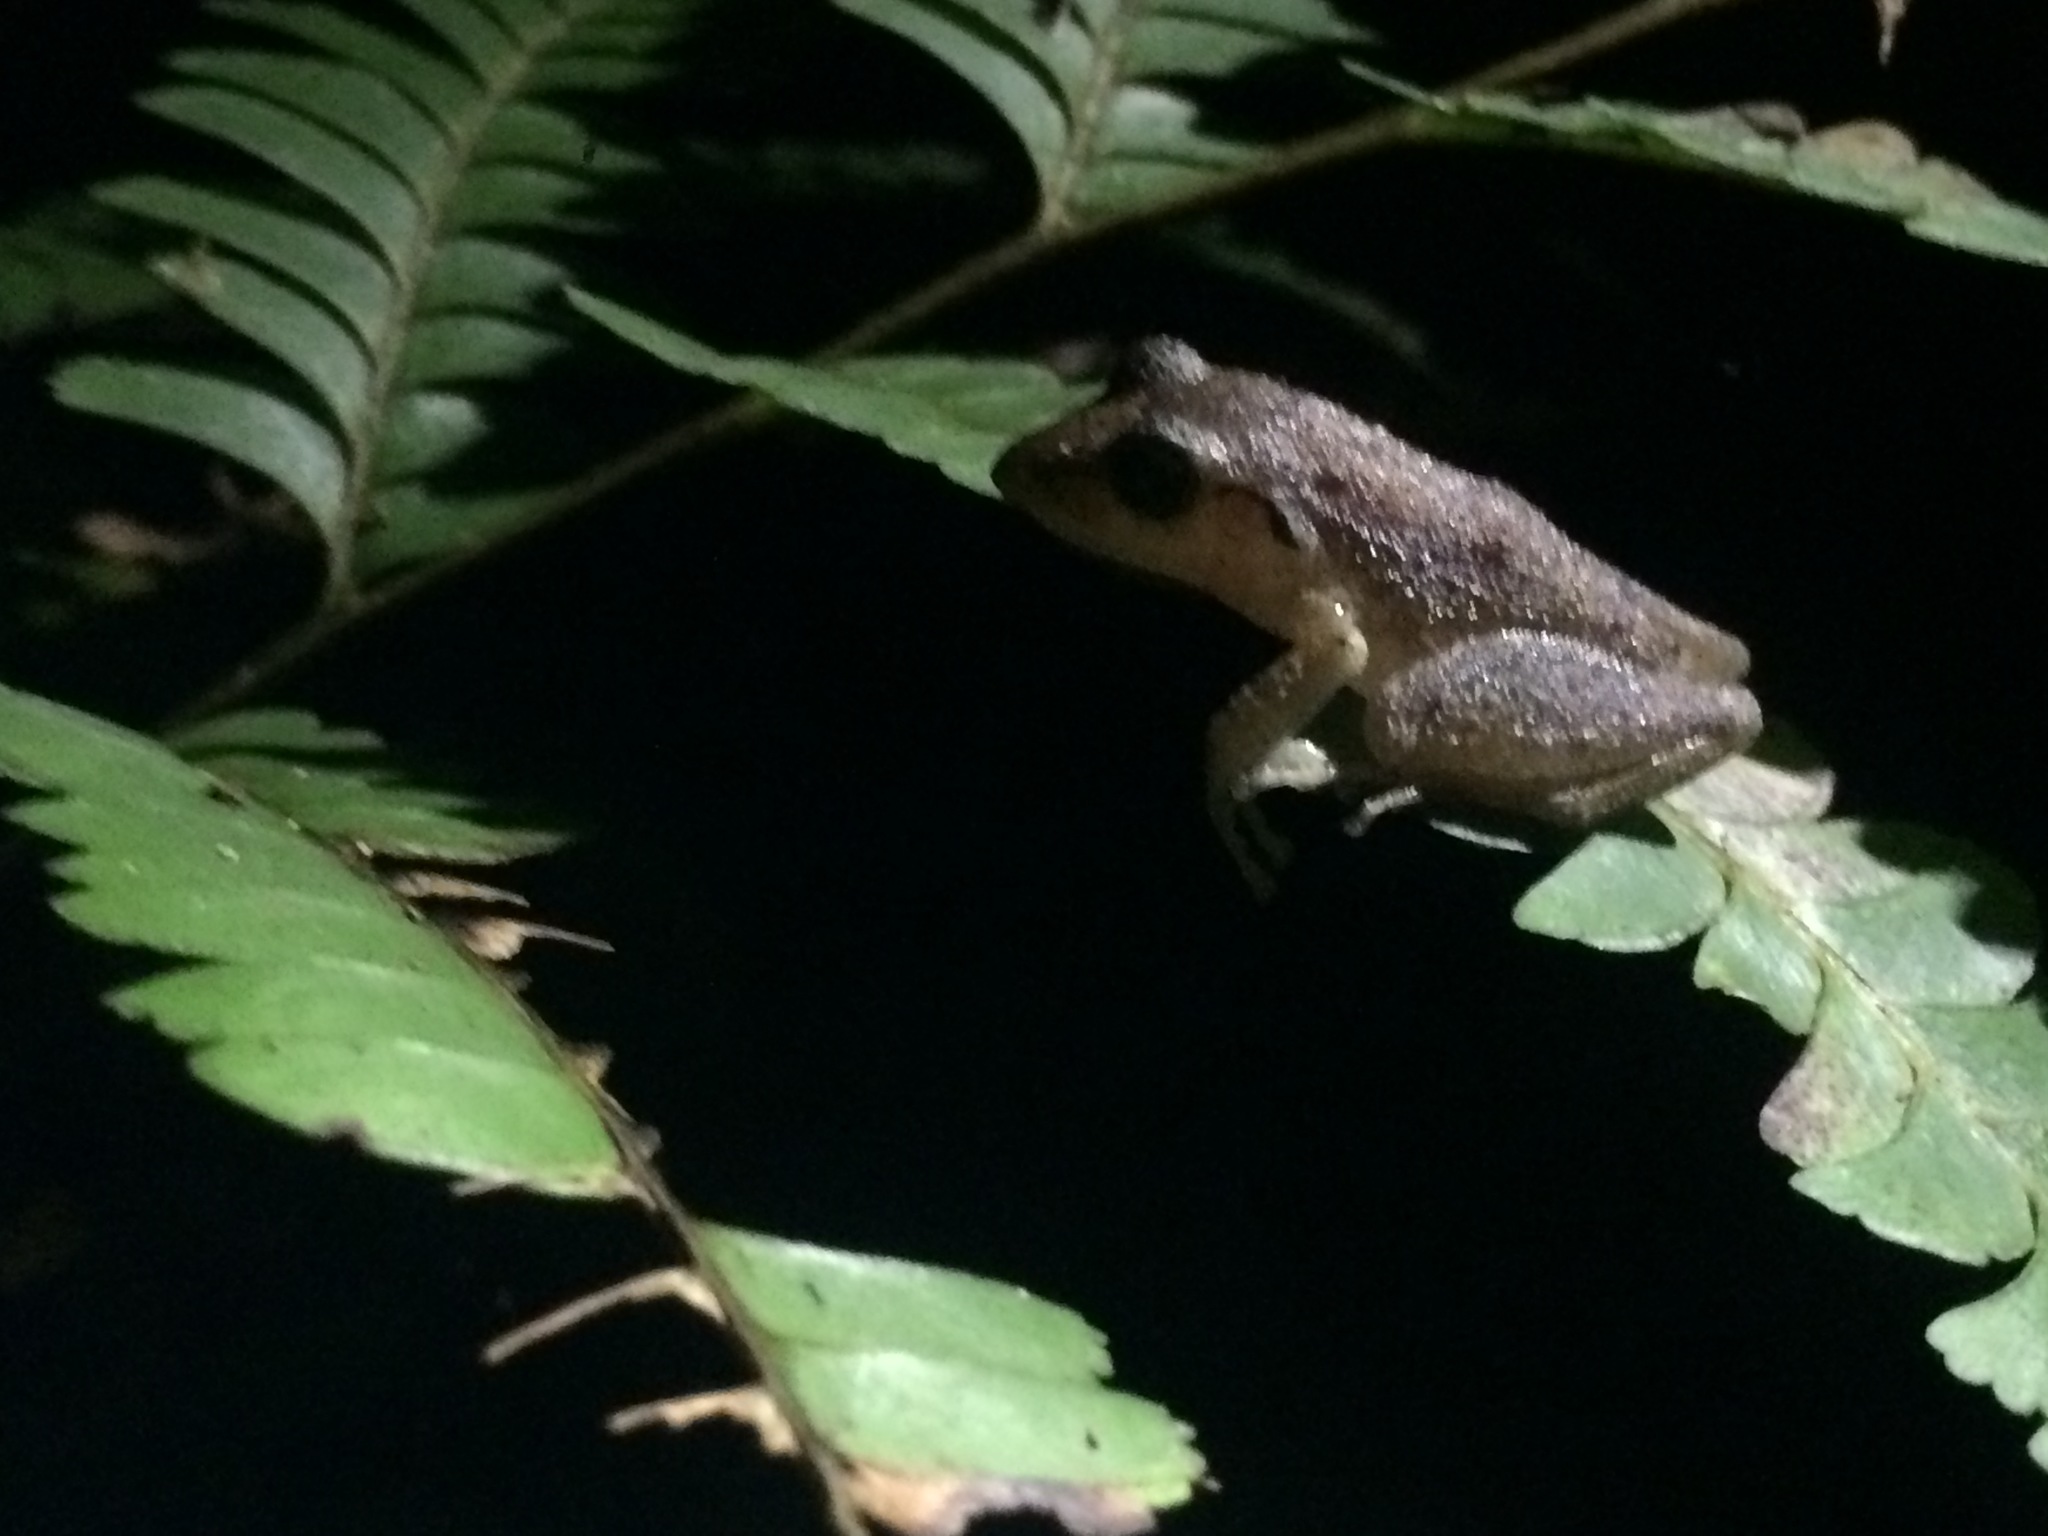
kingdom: Animalia
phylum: Chordata
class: Amphibia
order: Anura
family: Craugastoridae
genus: Pristimantis
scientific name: Pristimantis ramagii
